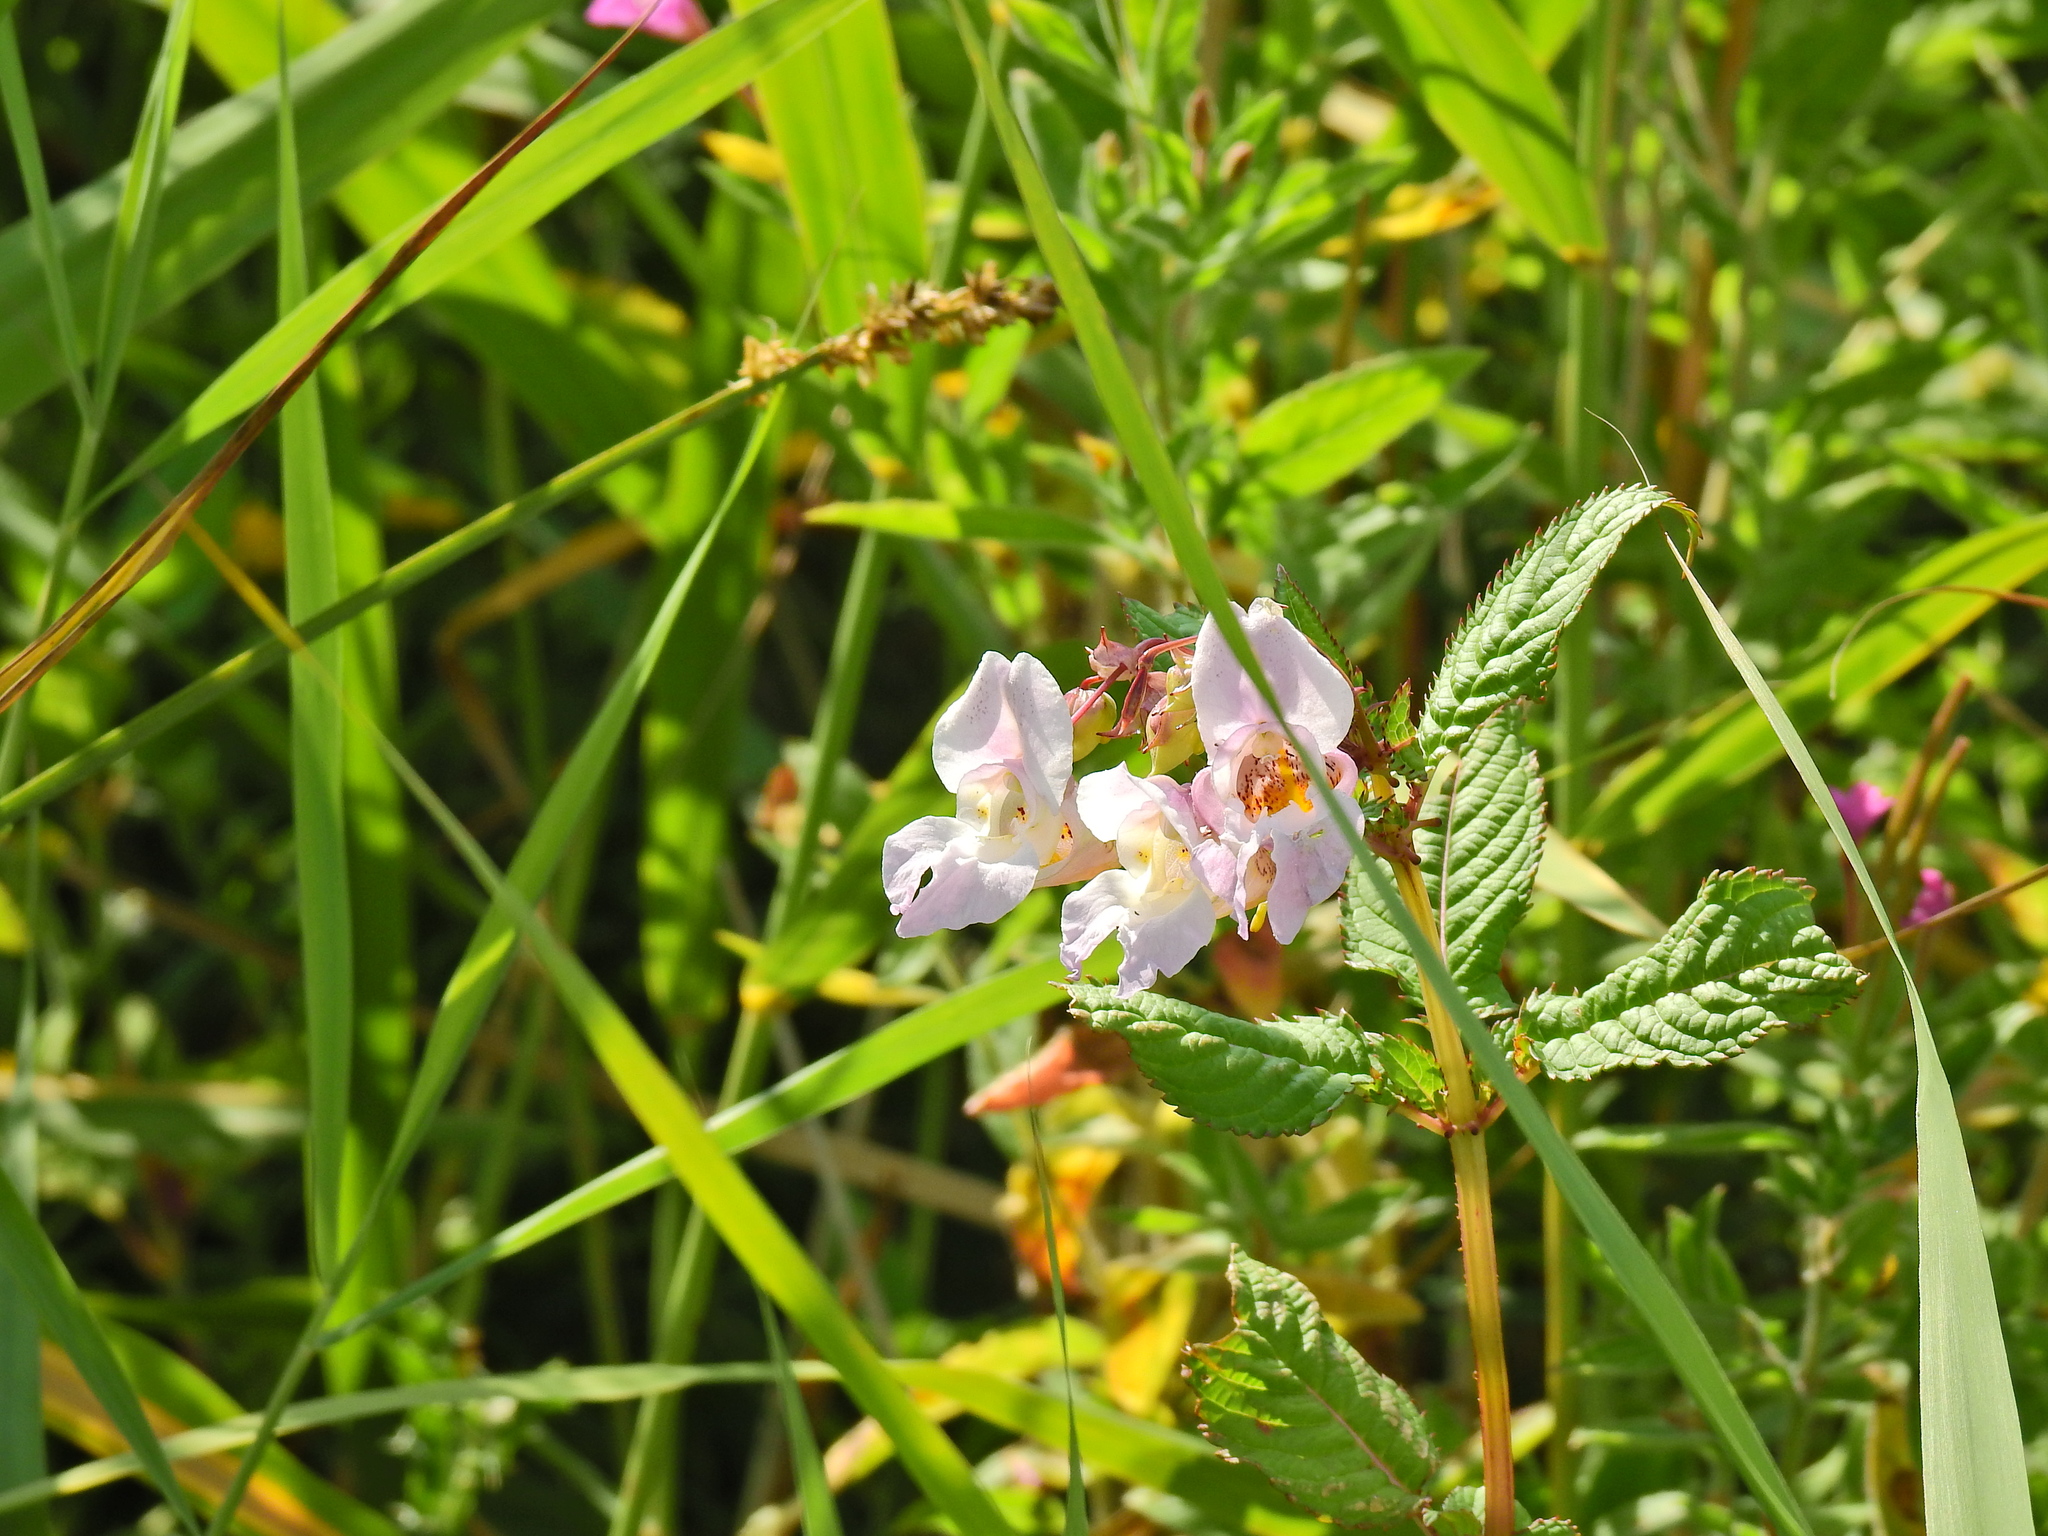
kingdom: Plantae
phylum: Tracheophyta
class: Magnoliopsida
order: Ericales
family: Balsaminaceae
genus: Impatiens
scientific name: Impatiens glandulifera
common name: Himalayan balsam
